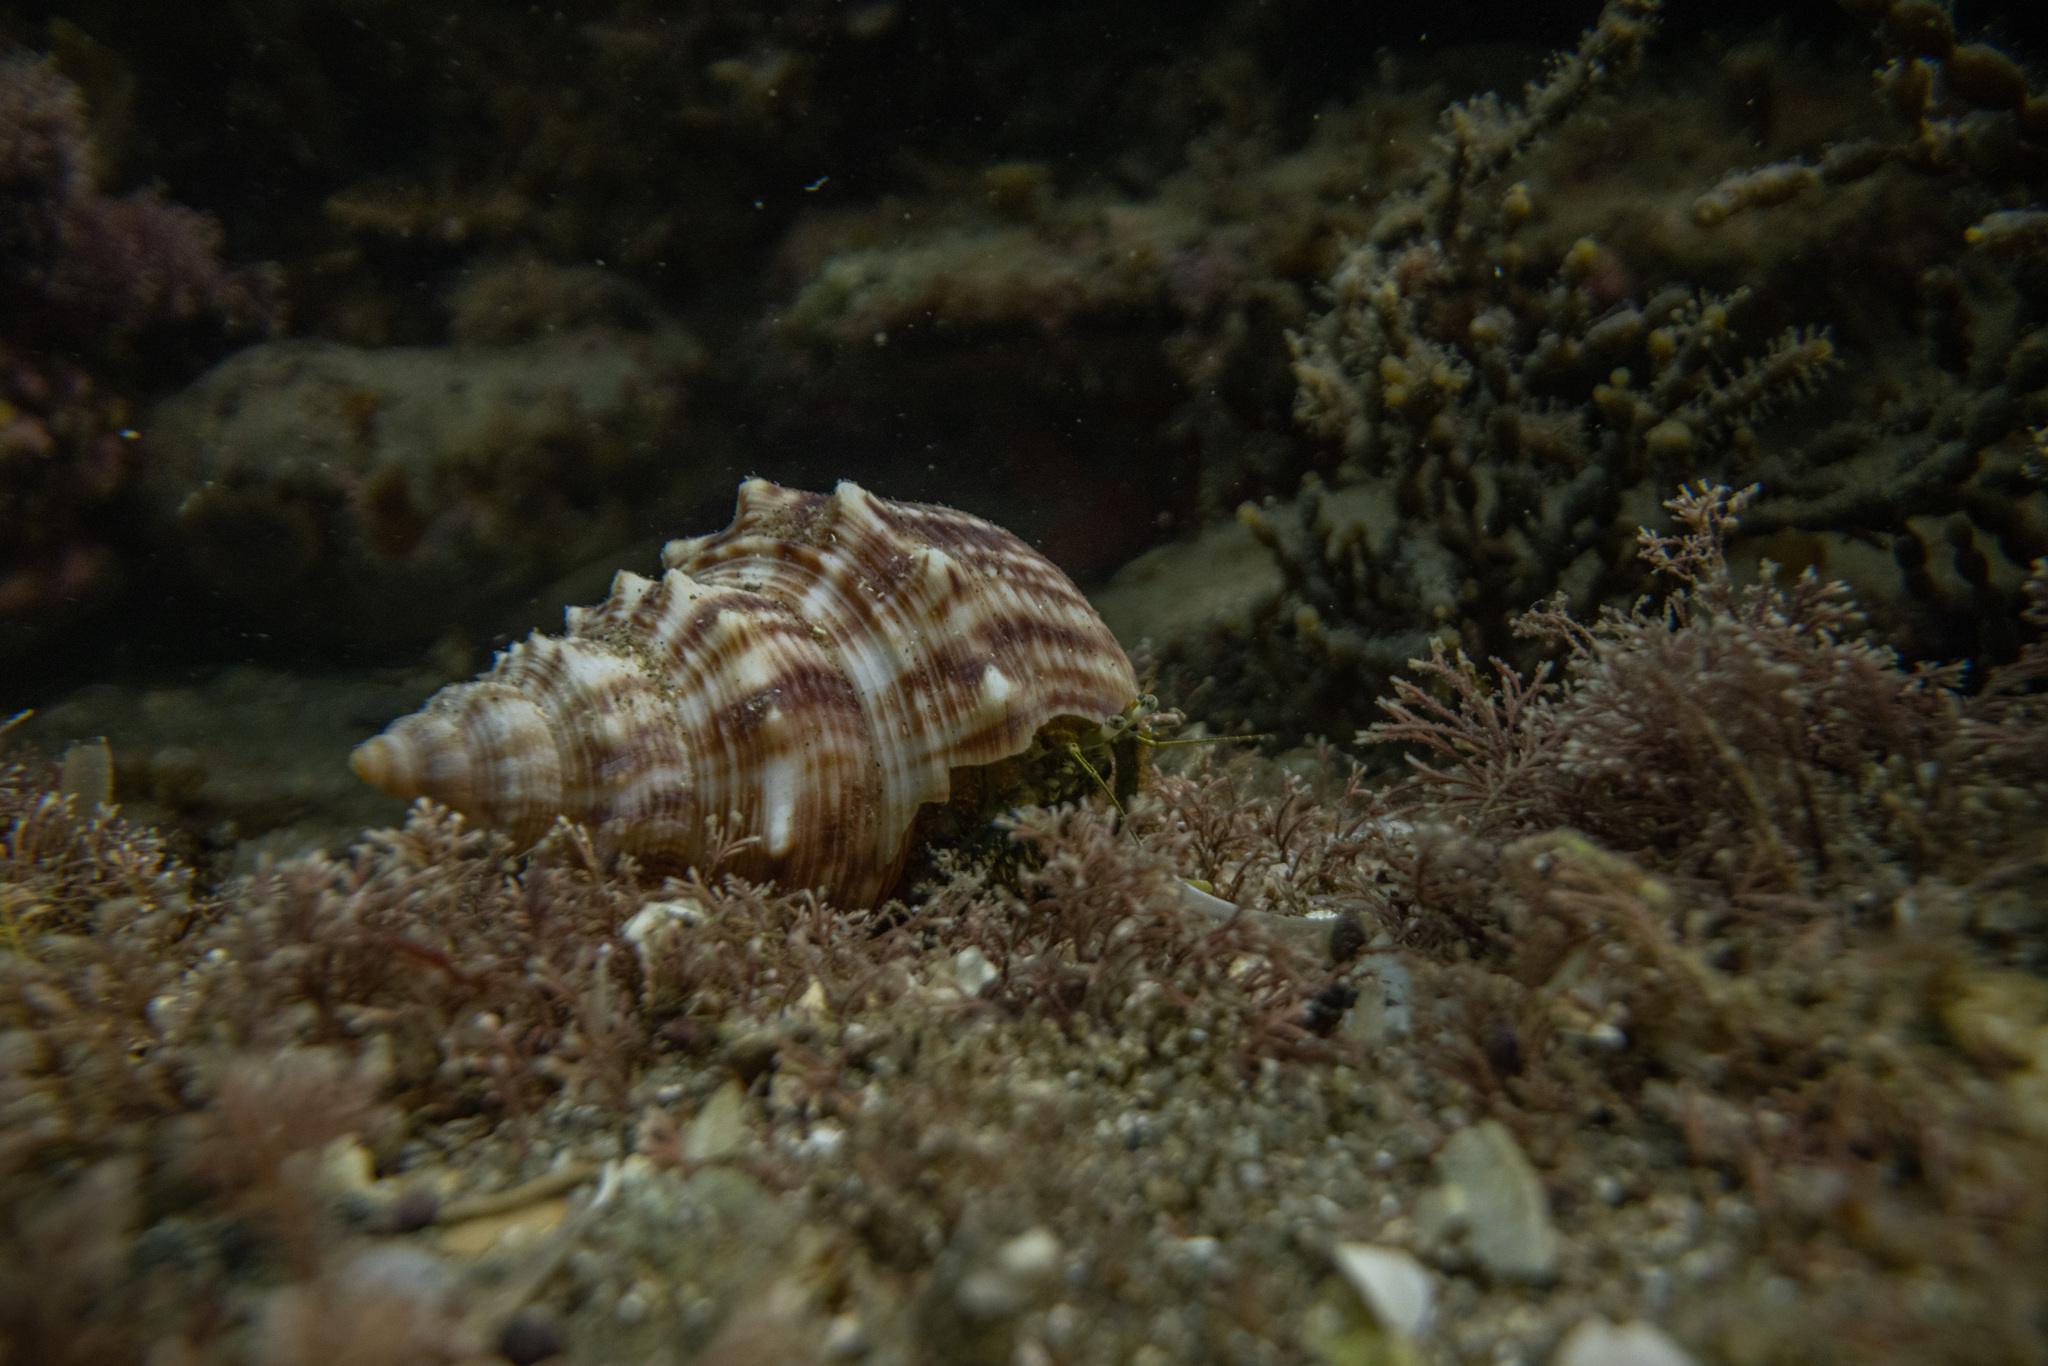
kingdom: Animalia
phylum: Arthropoda
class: Malacostraca
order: Decapoda
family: Paguridae
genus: Pagurus
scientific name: Pagurus novizealandiae
